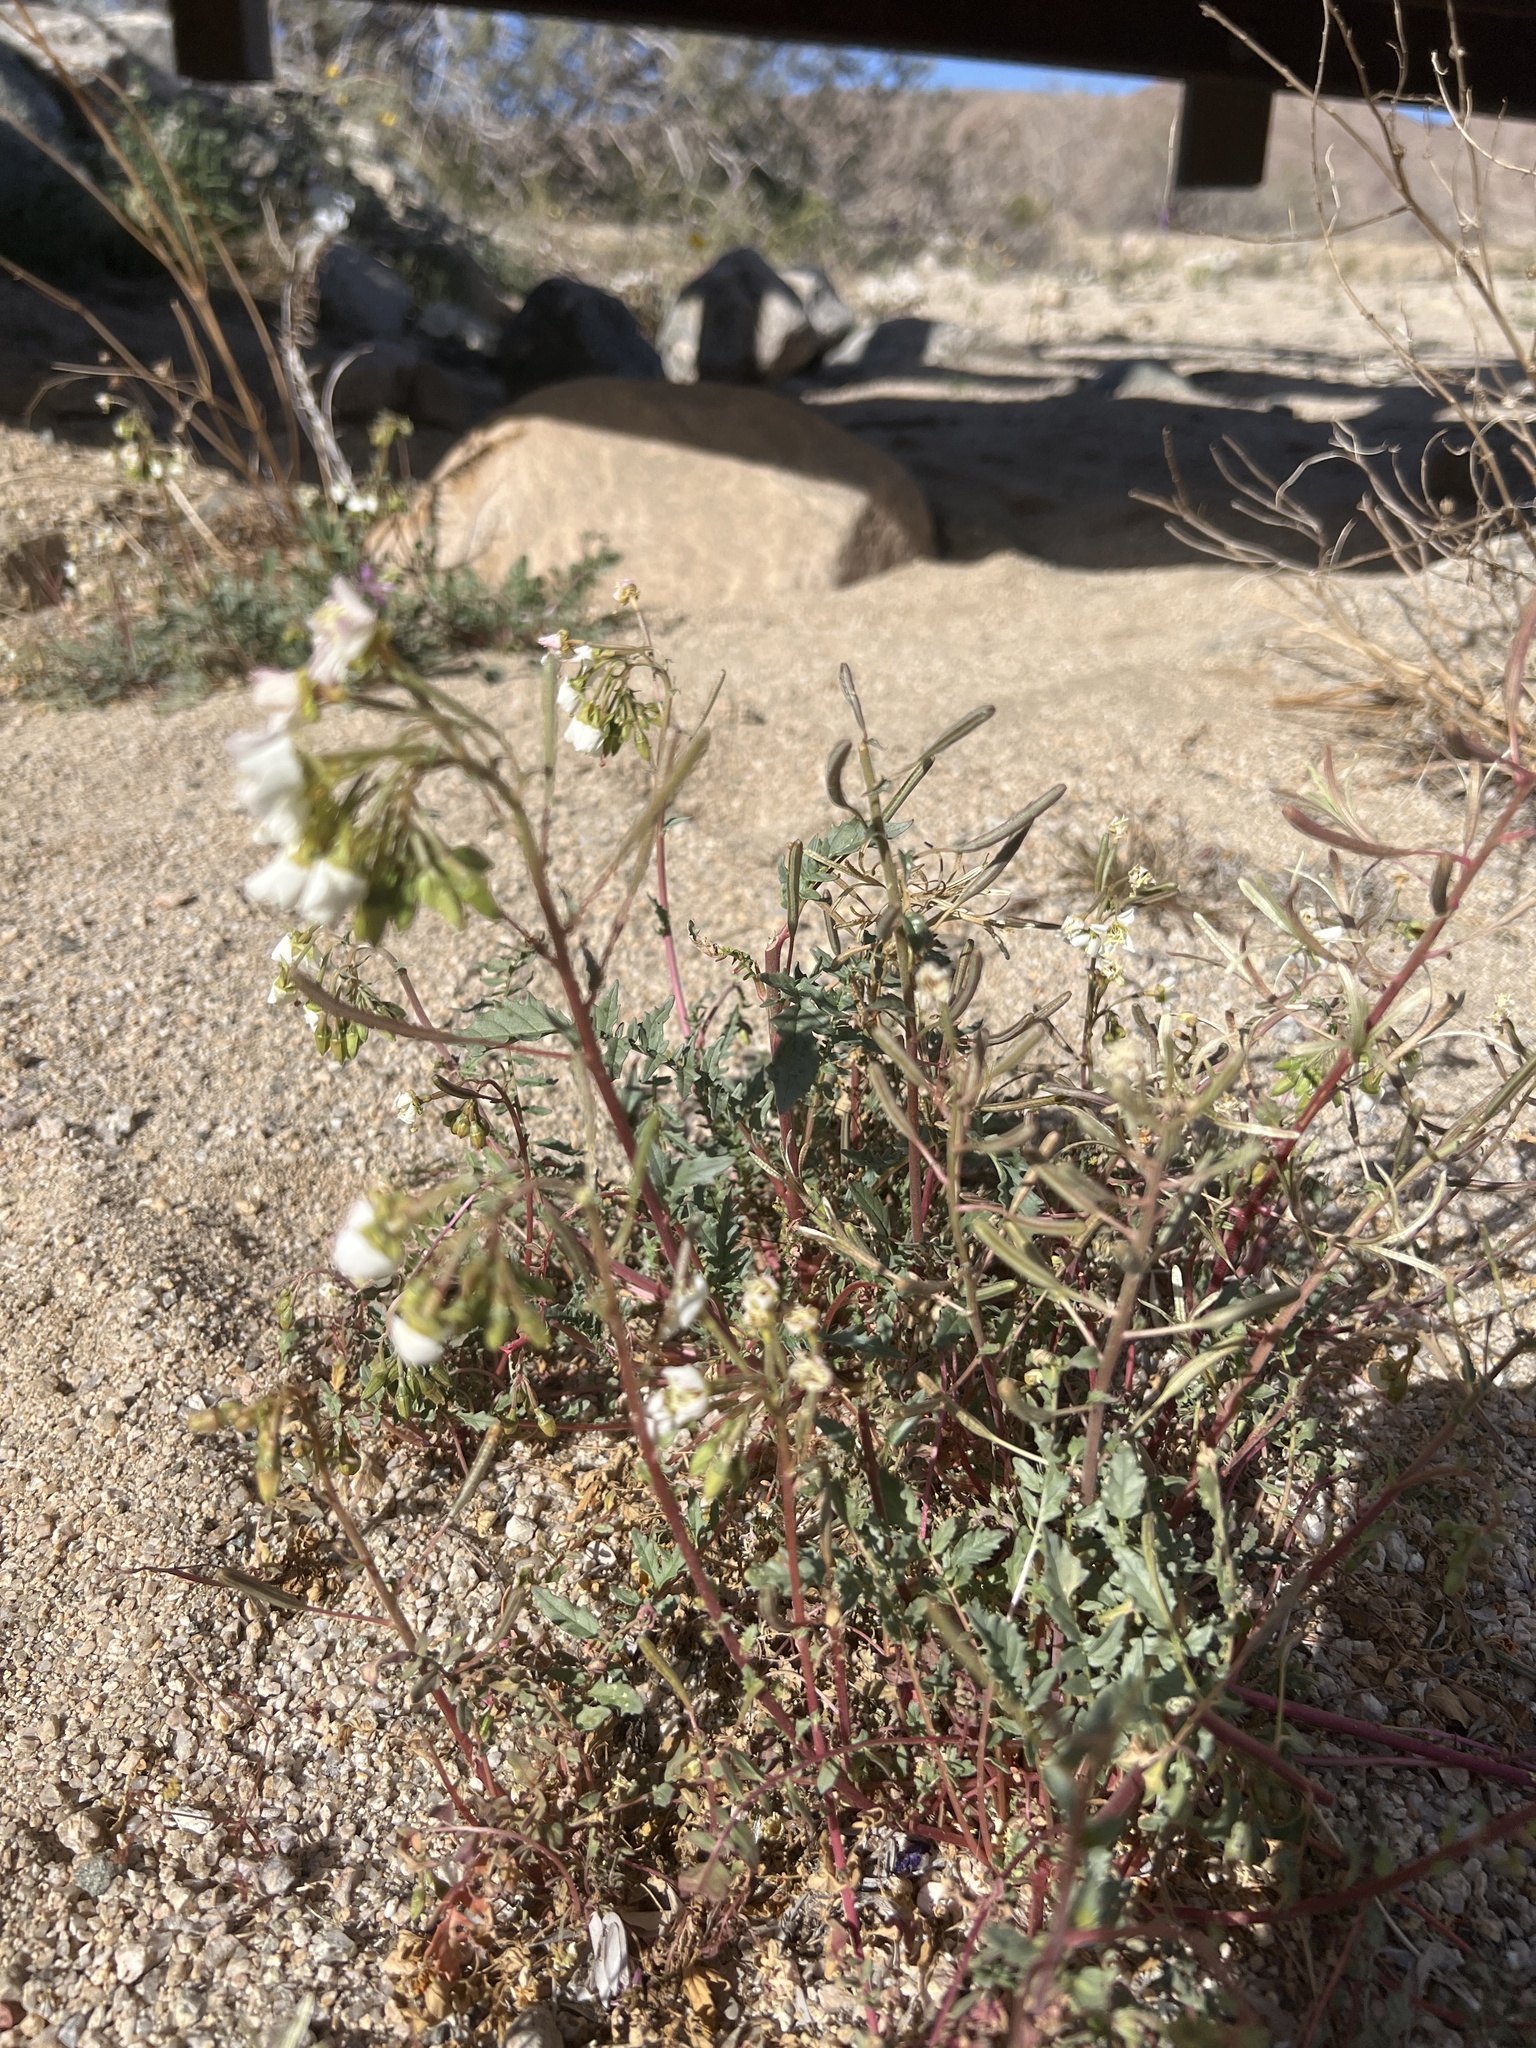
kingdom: Plantae
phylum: Tracheophyta
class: Magnoliopsida
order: Myrtales
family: Onagraceae
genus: Chylismia
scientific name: Chylismia claviformis
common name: Browneyes
